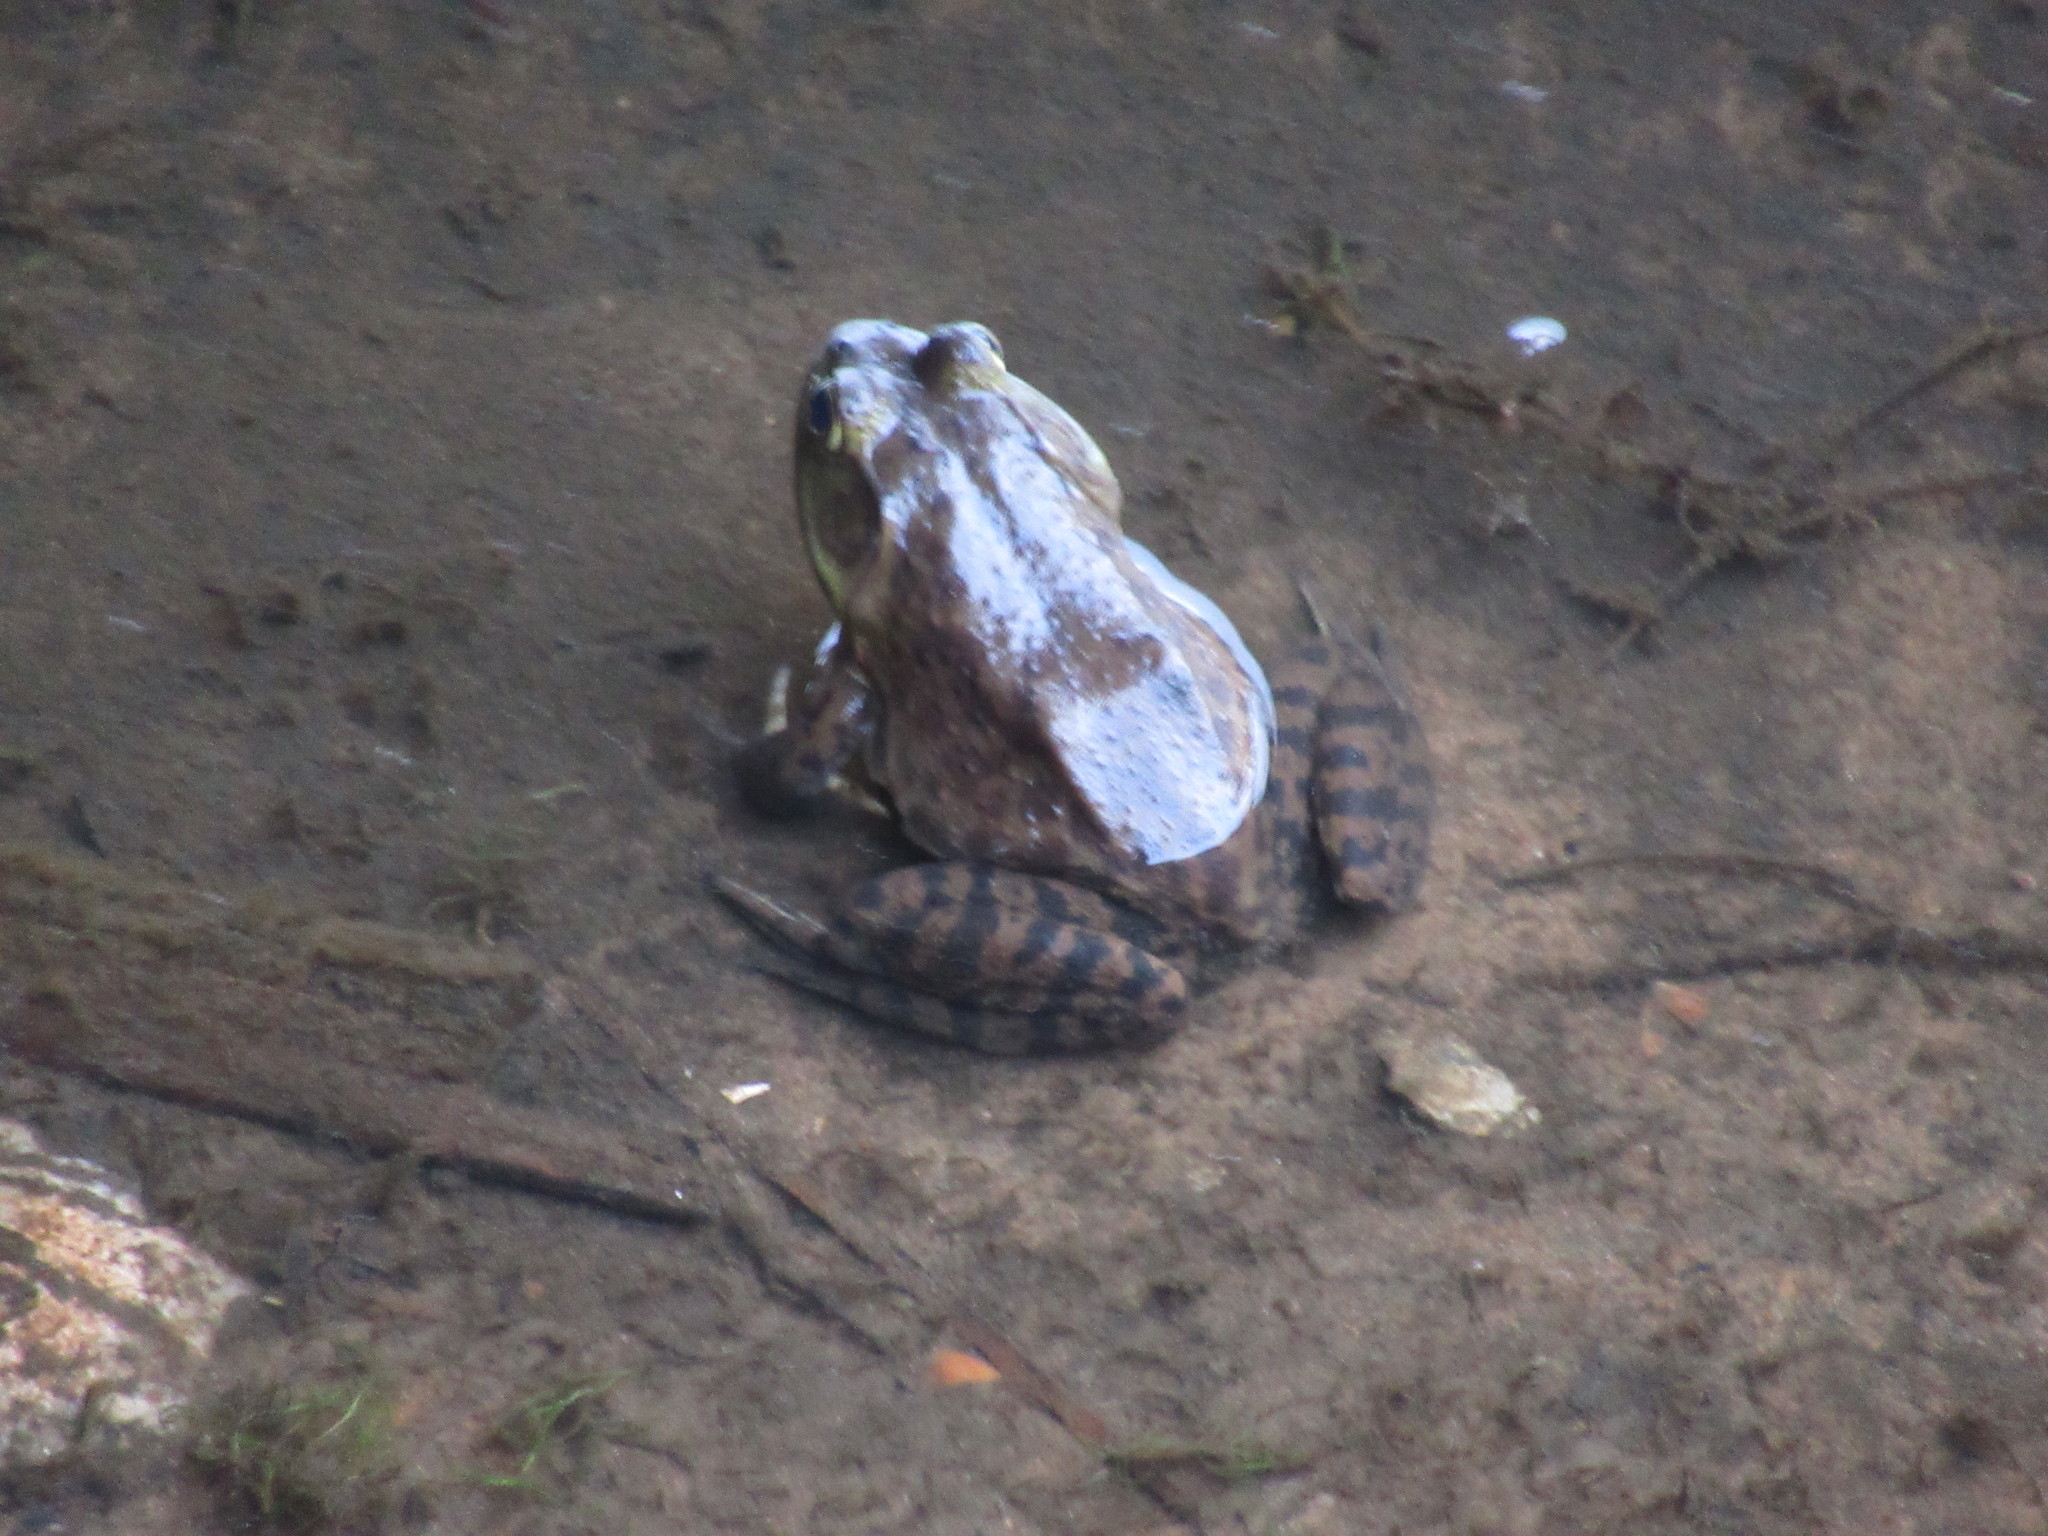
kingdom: Animalia
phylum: Chordata
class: Amphibia
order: Anura
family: Ranidae
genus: Lithobates
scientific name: Lithobates catesbeianus
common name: American bullfrog
